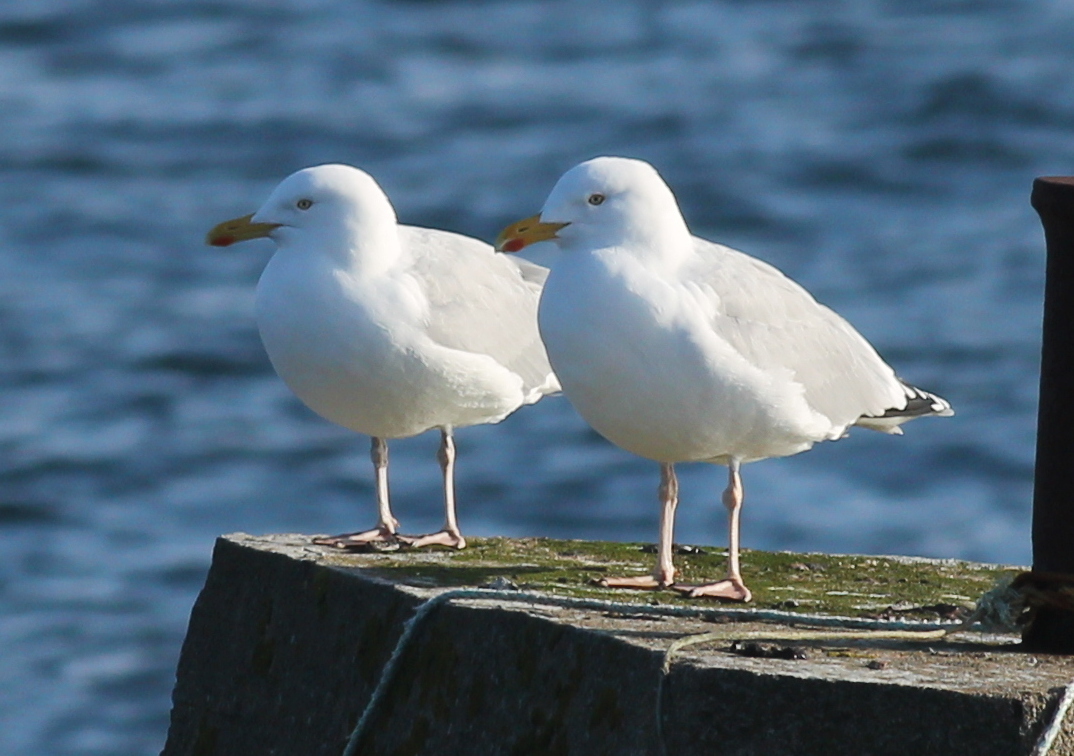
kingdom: Animalia
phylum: Chordata
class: Aves
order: Charadriiformes
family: Laridae
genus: Larus
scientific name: Larus argentatus
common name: Herring gull
